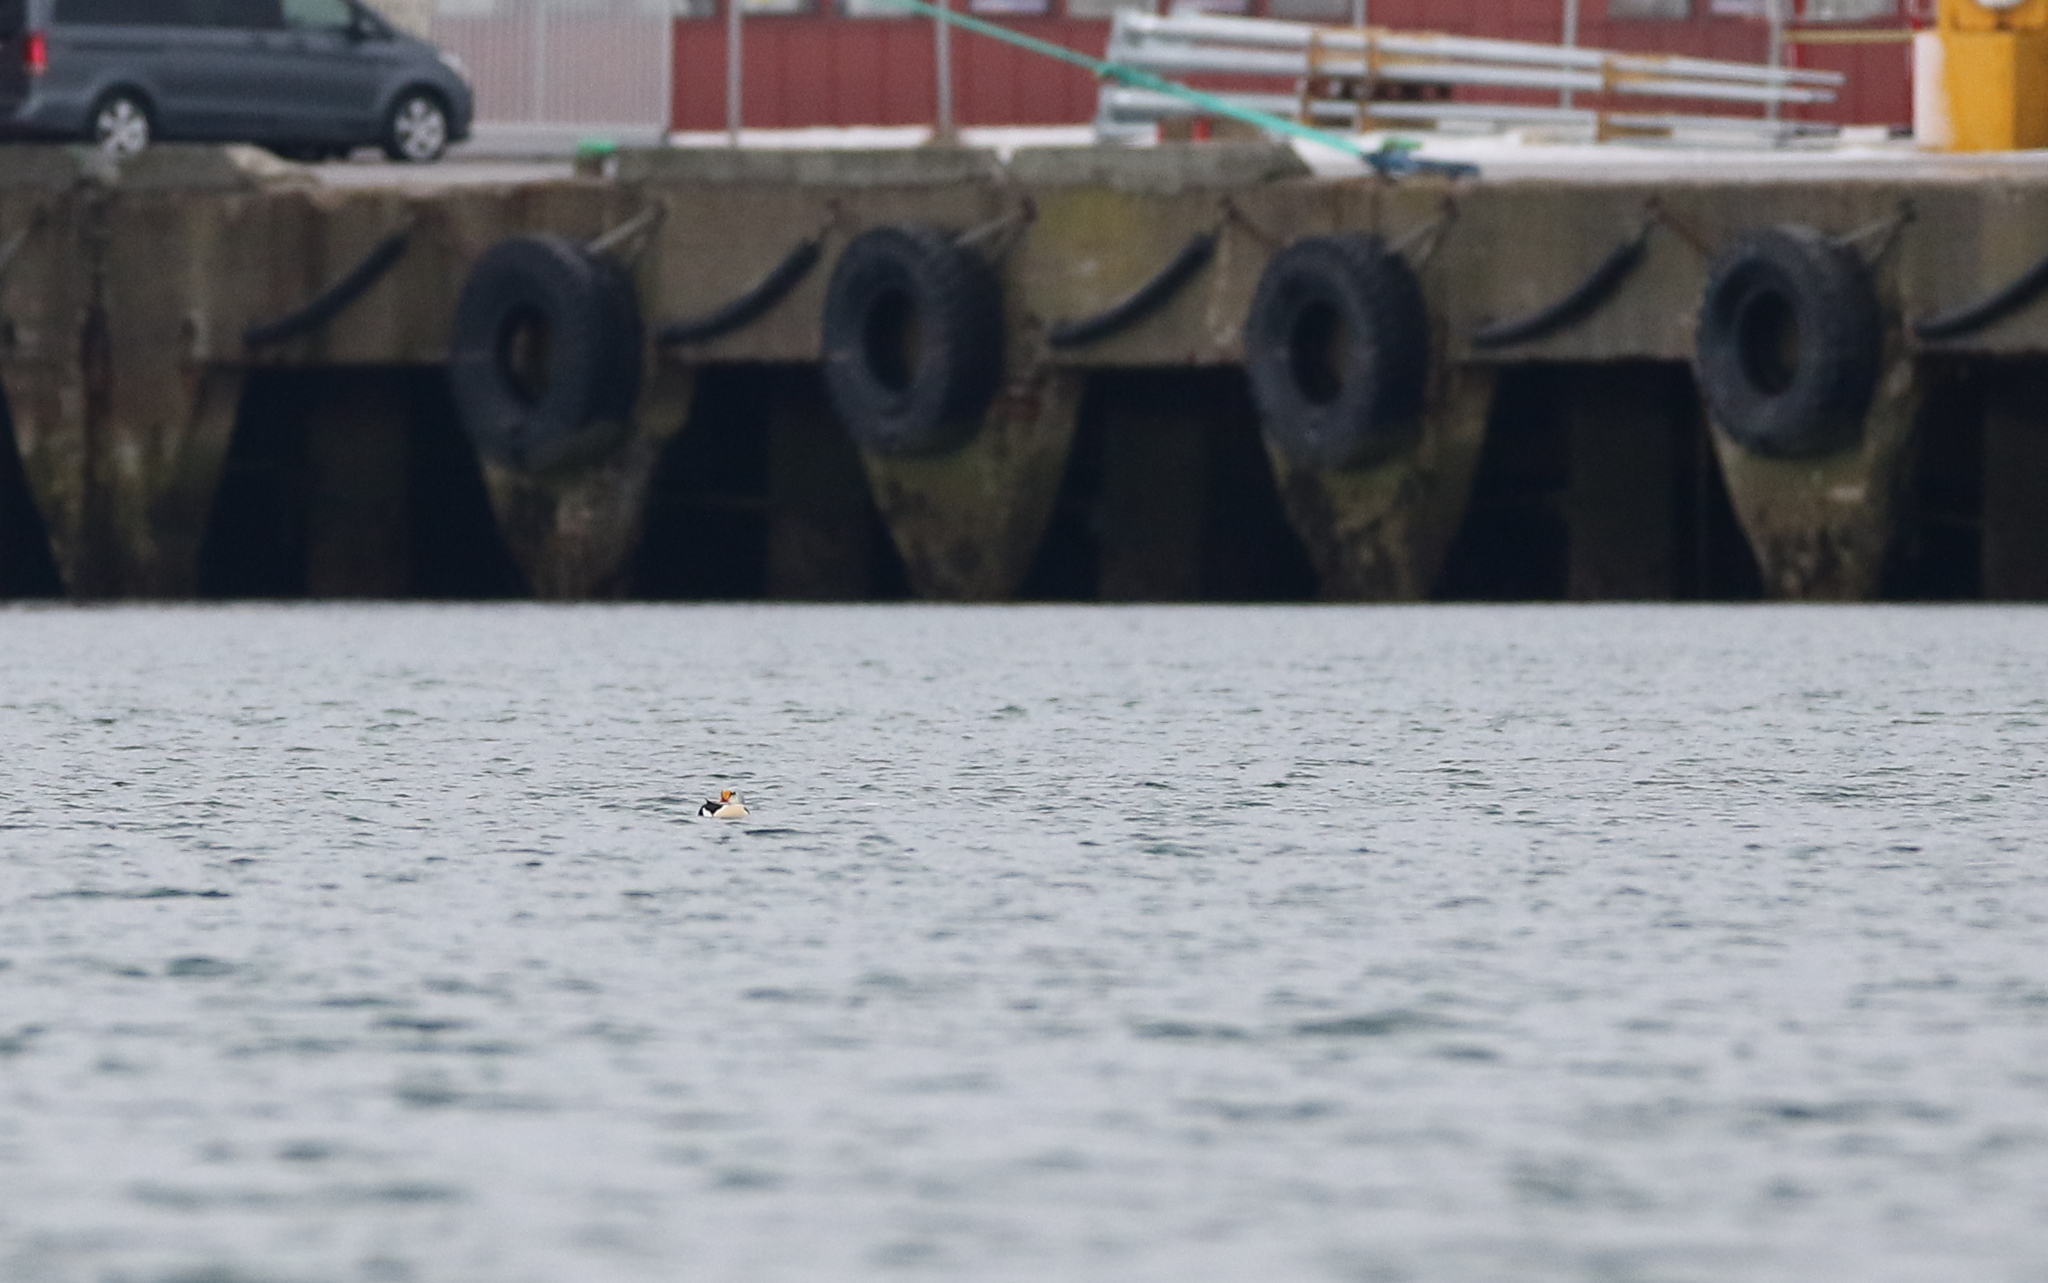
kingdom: Animalia
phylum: Chordata
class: Aves
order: Anseriformes
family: Anatidae
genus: Somateria
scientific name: Somateria spectabilis
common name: King eider
